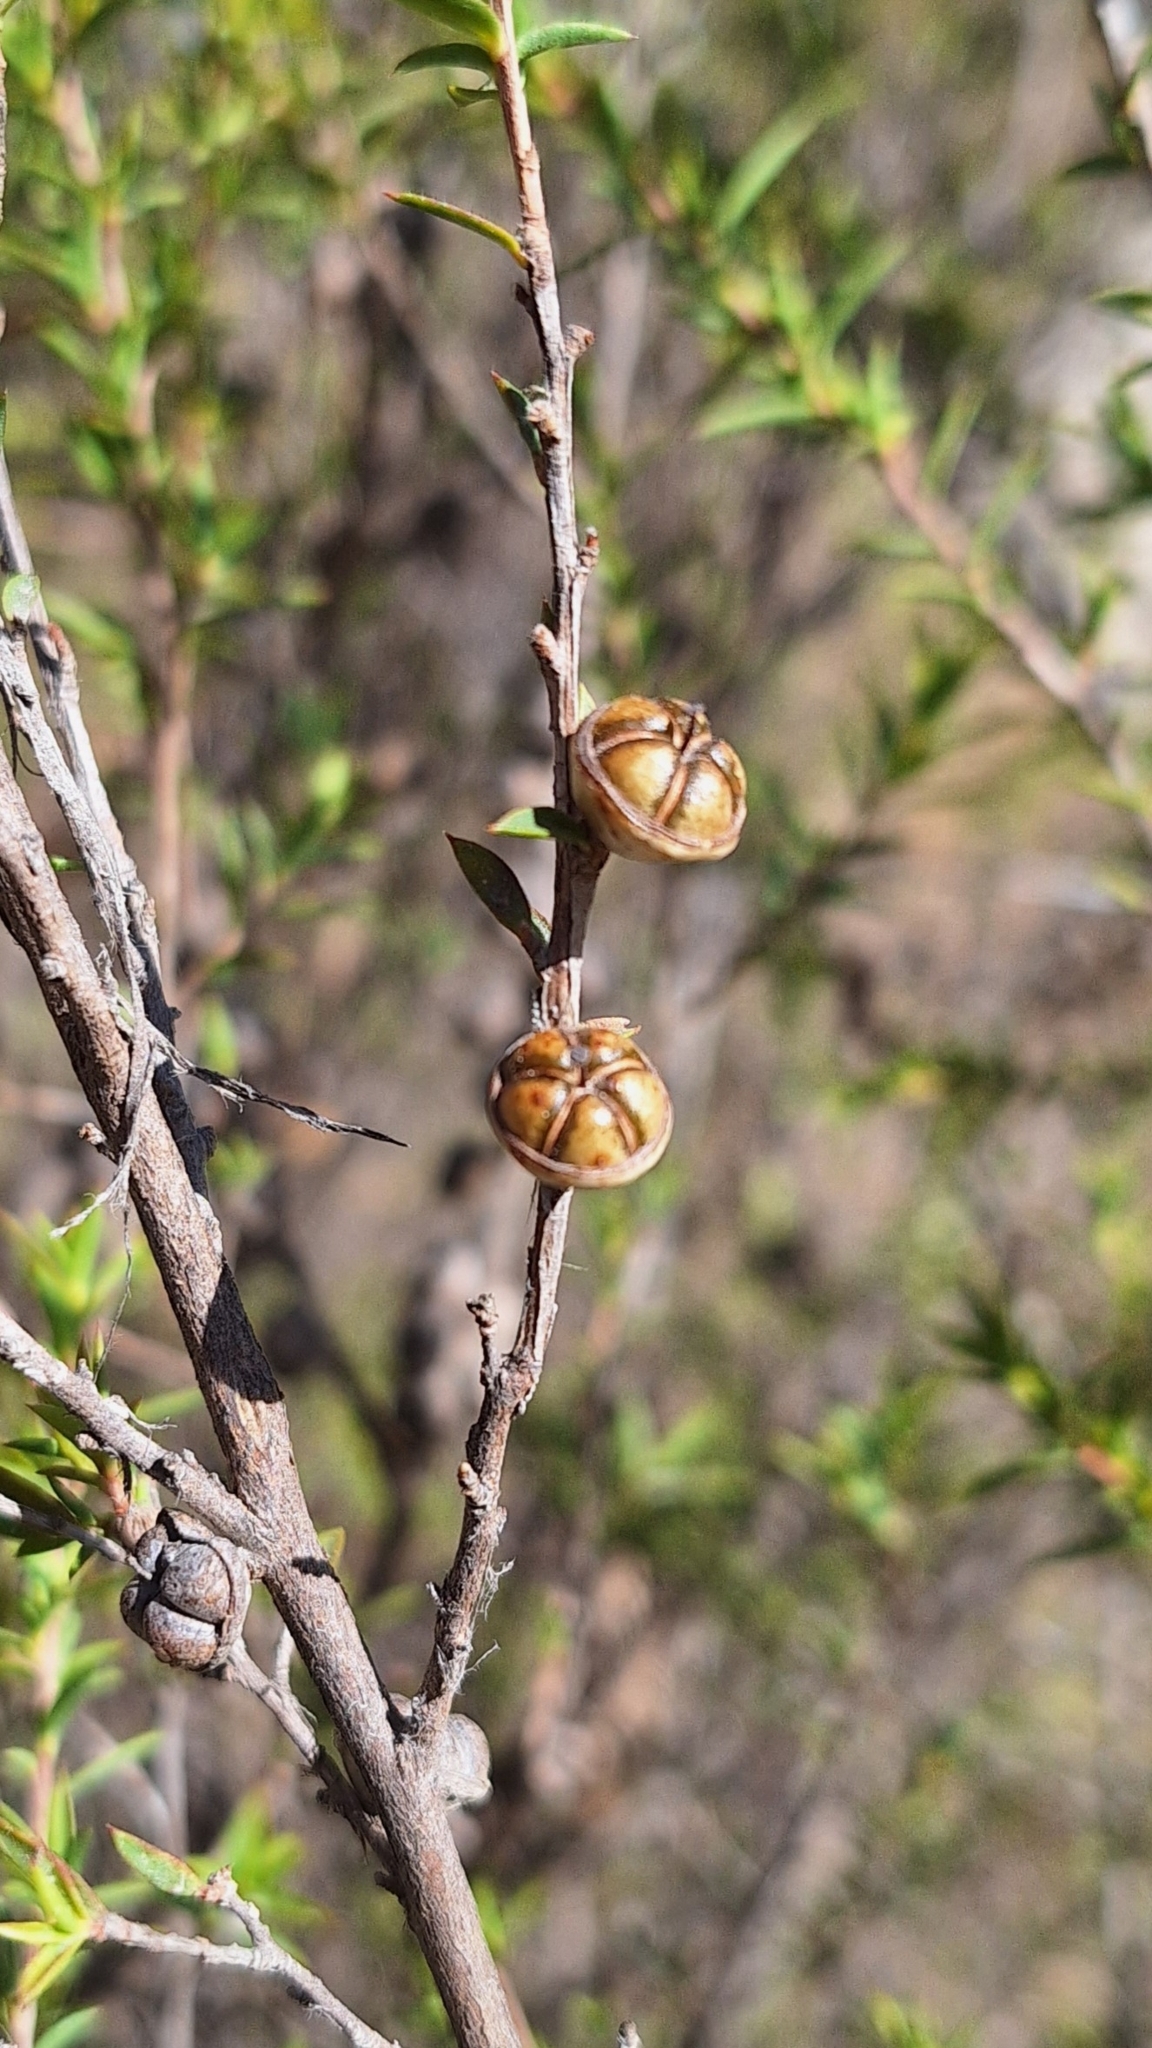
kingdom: Plantae
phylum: Tracheophyta
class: Magnoliopsida
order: Myrtales
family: Myrtaceae
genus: Leptospermum
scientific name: Leptospermum continentale
